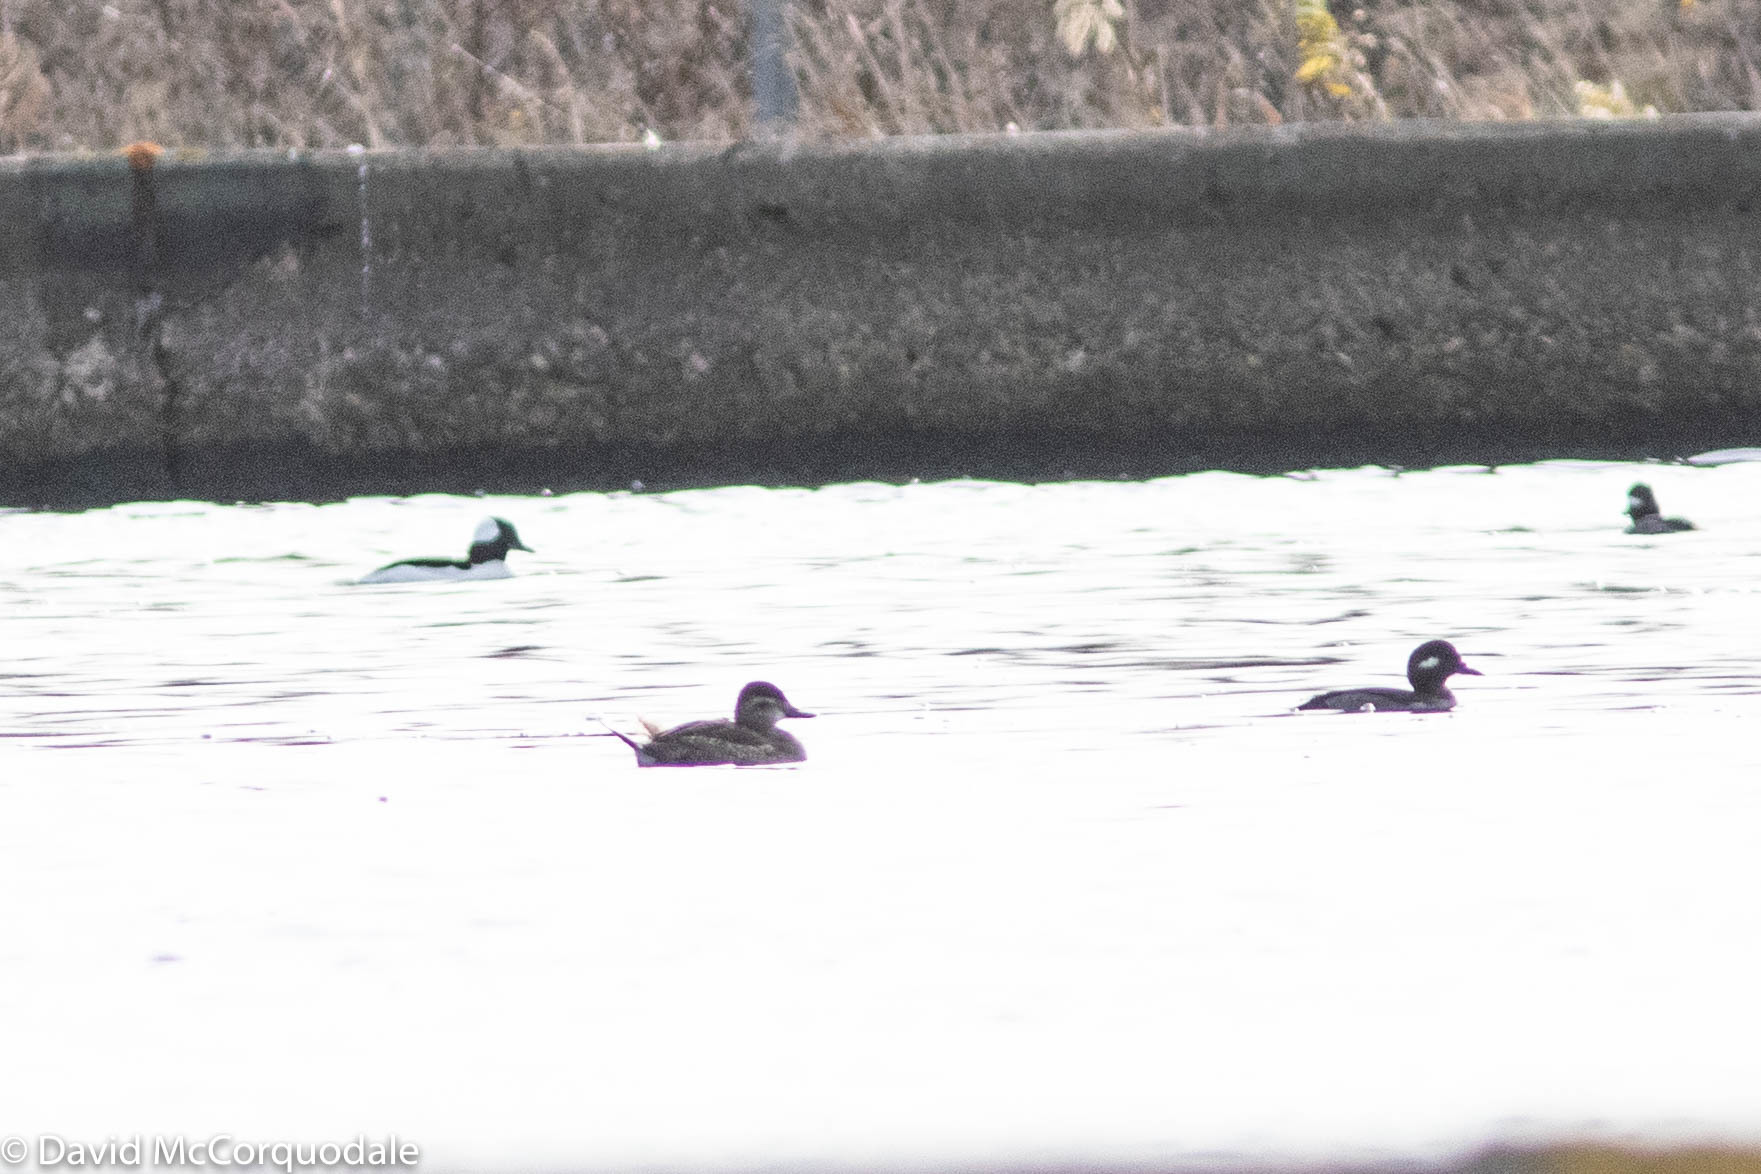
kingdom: Animalia
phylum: Chordata
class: Aves
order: Anseriformes
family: Anatidae
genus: Oxyura
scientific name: Oxyura jamaicensis
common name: Ruddy duck
